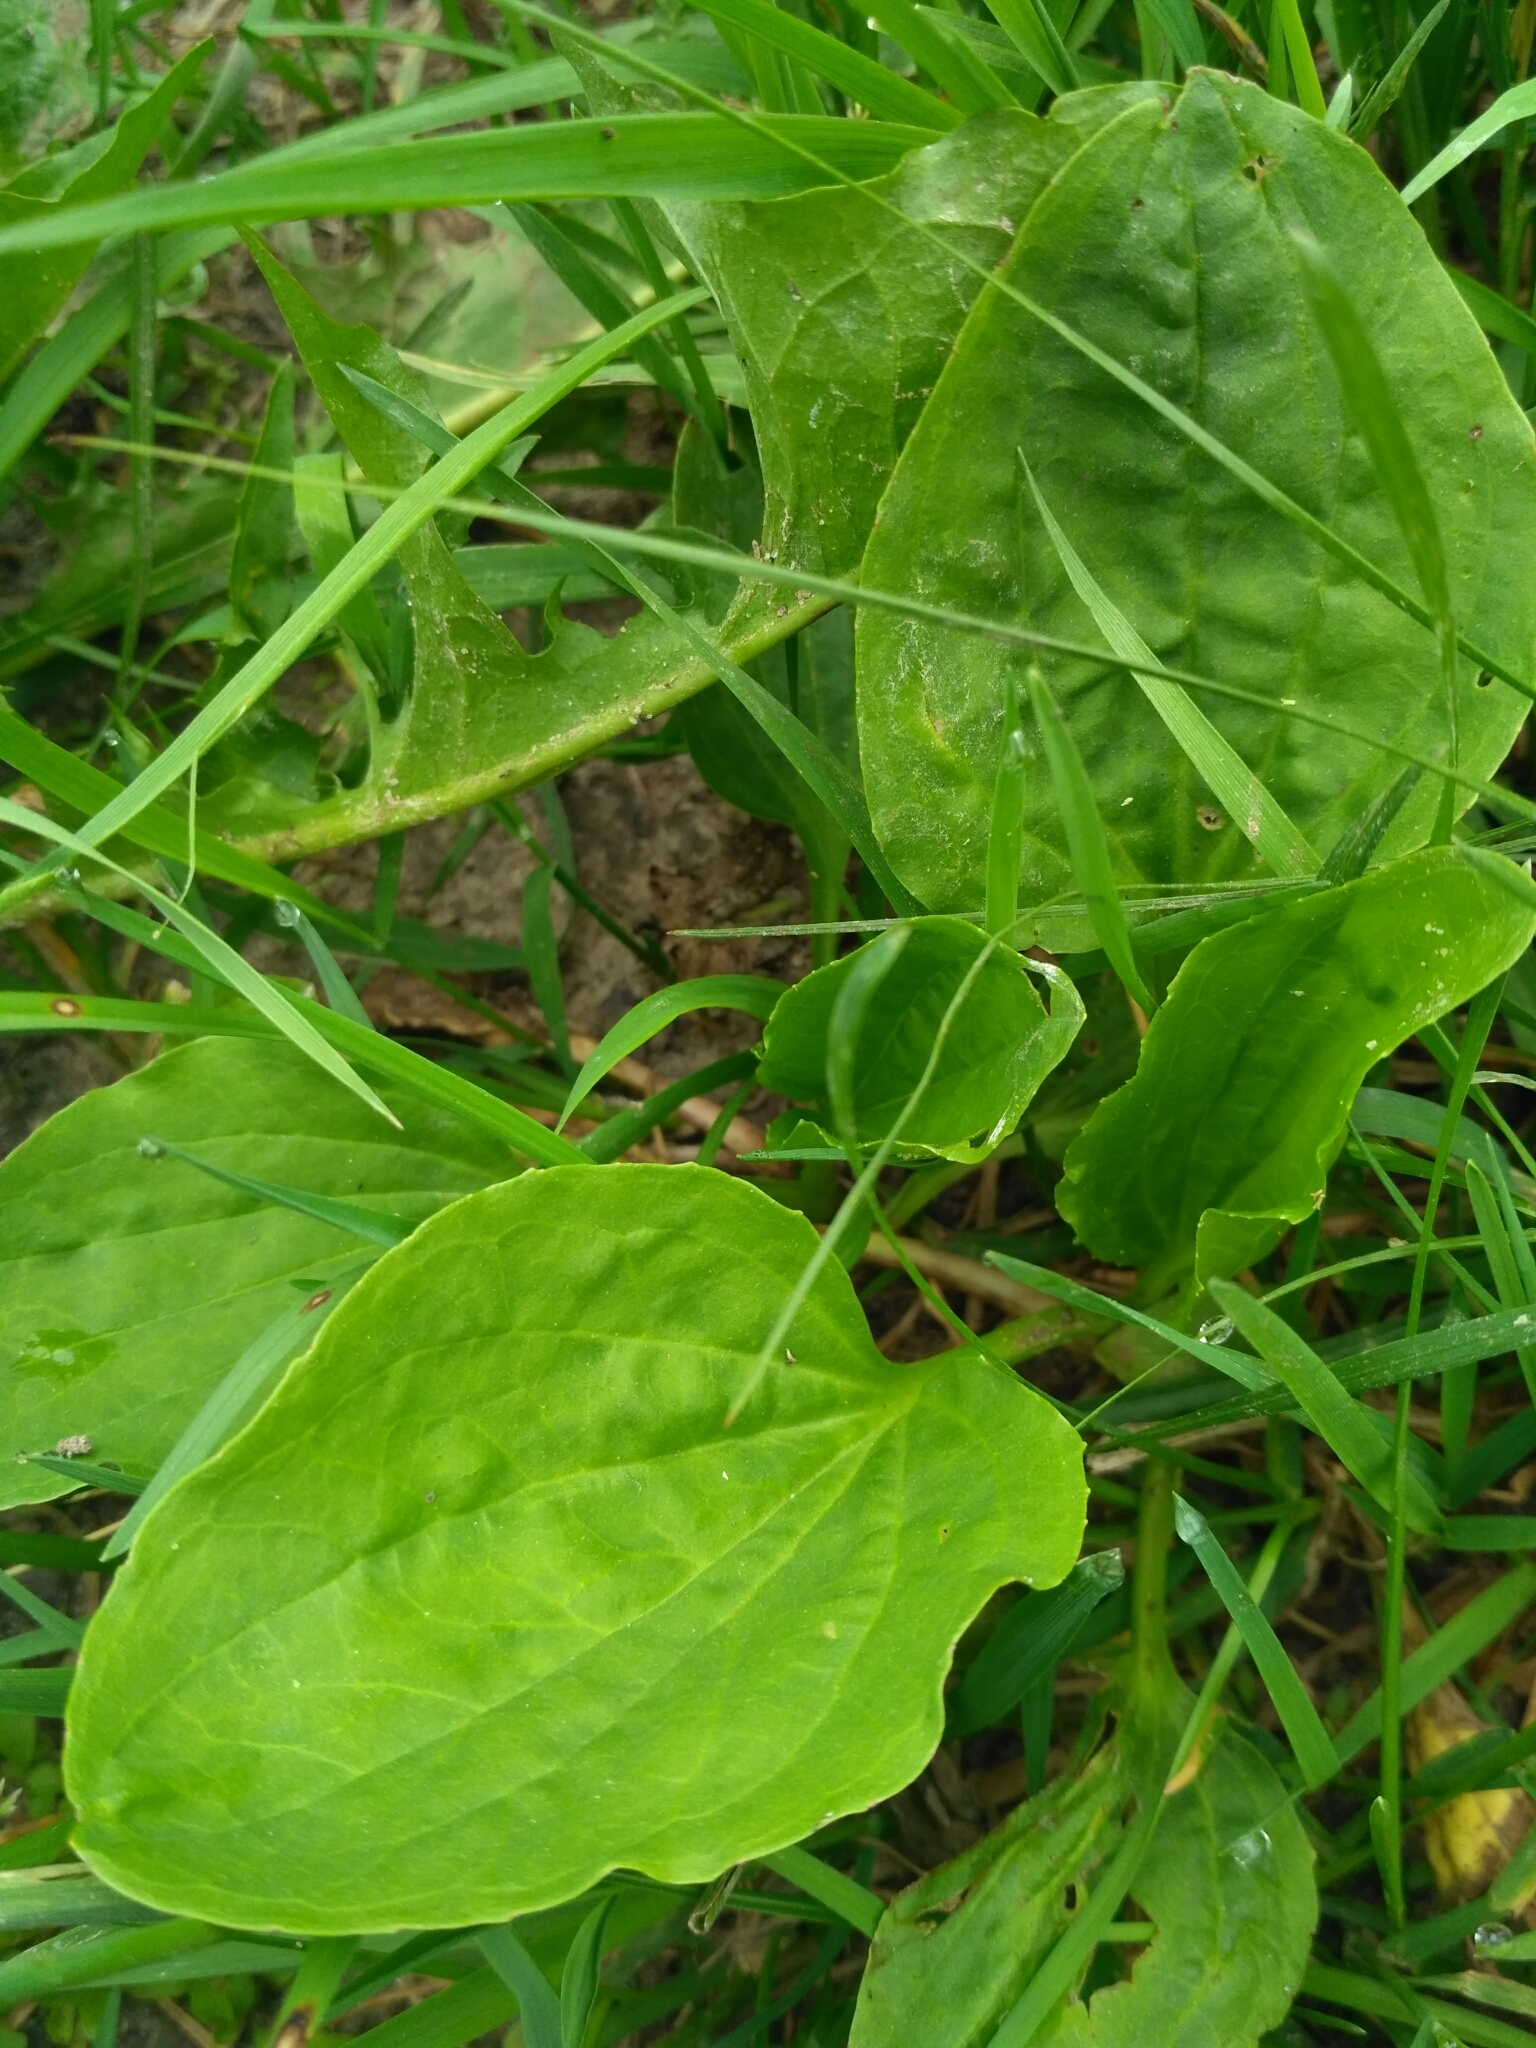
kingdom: Plantae
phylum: Tracheophyta
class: Magnoliopsida
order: Lamiales
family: Plantaginaceae
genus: Plantago
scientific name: Plantago major
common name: Common plantain
